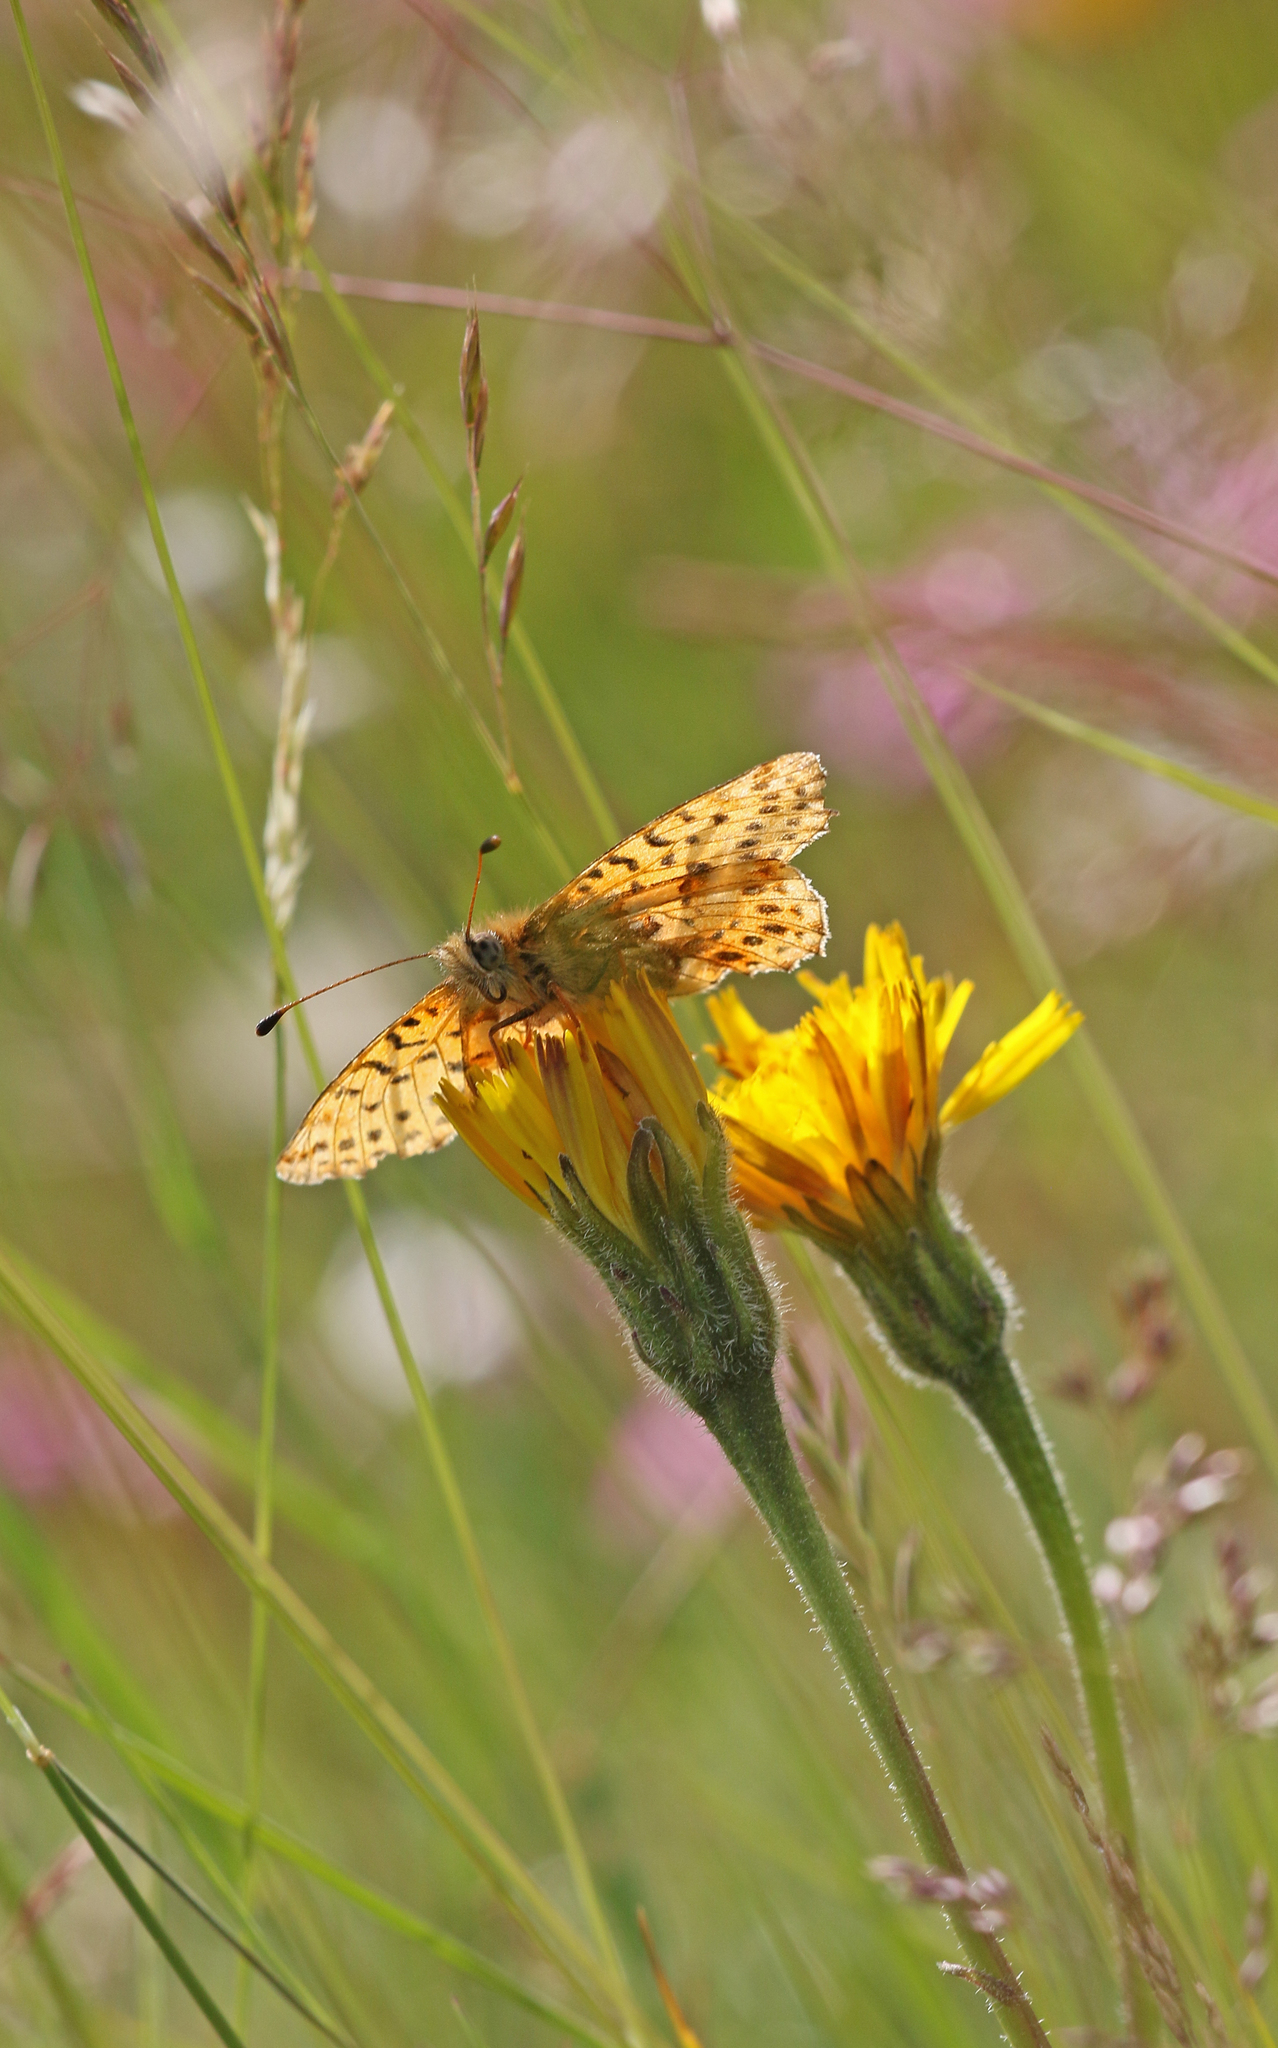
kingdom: Animalia
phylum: Arthropoda
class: Insecta
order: Lepidoptera
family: Nymphalidae
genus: Boloria
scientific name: Boloria graeca
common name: Balkan fritillary
